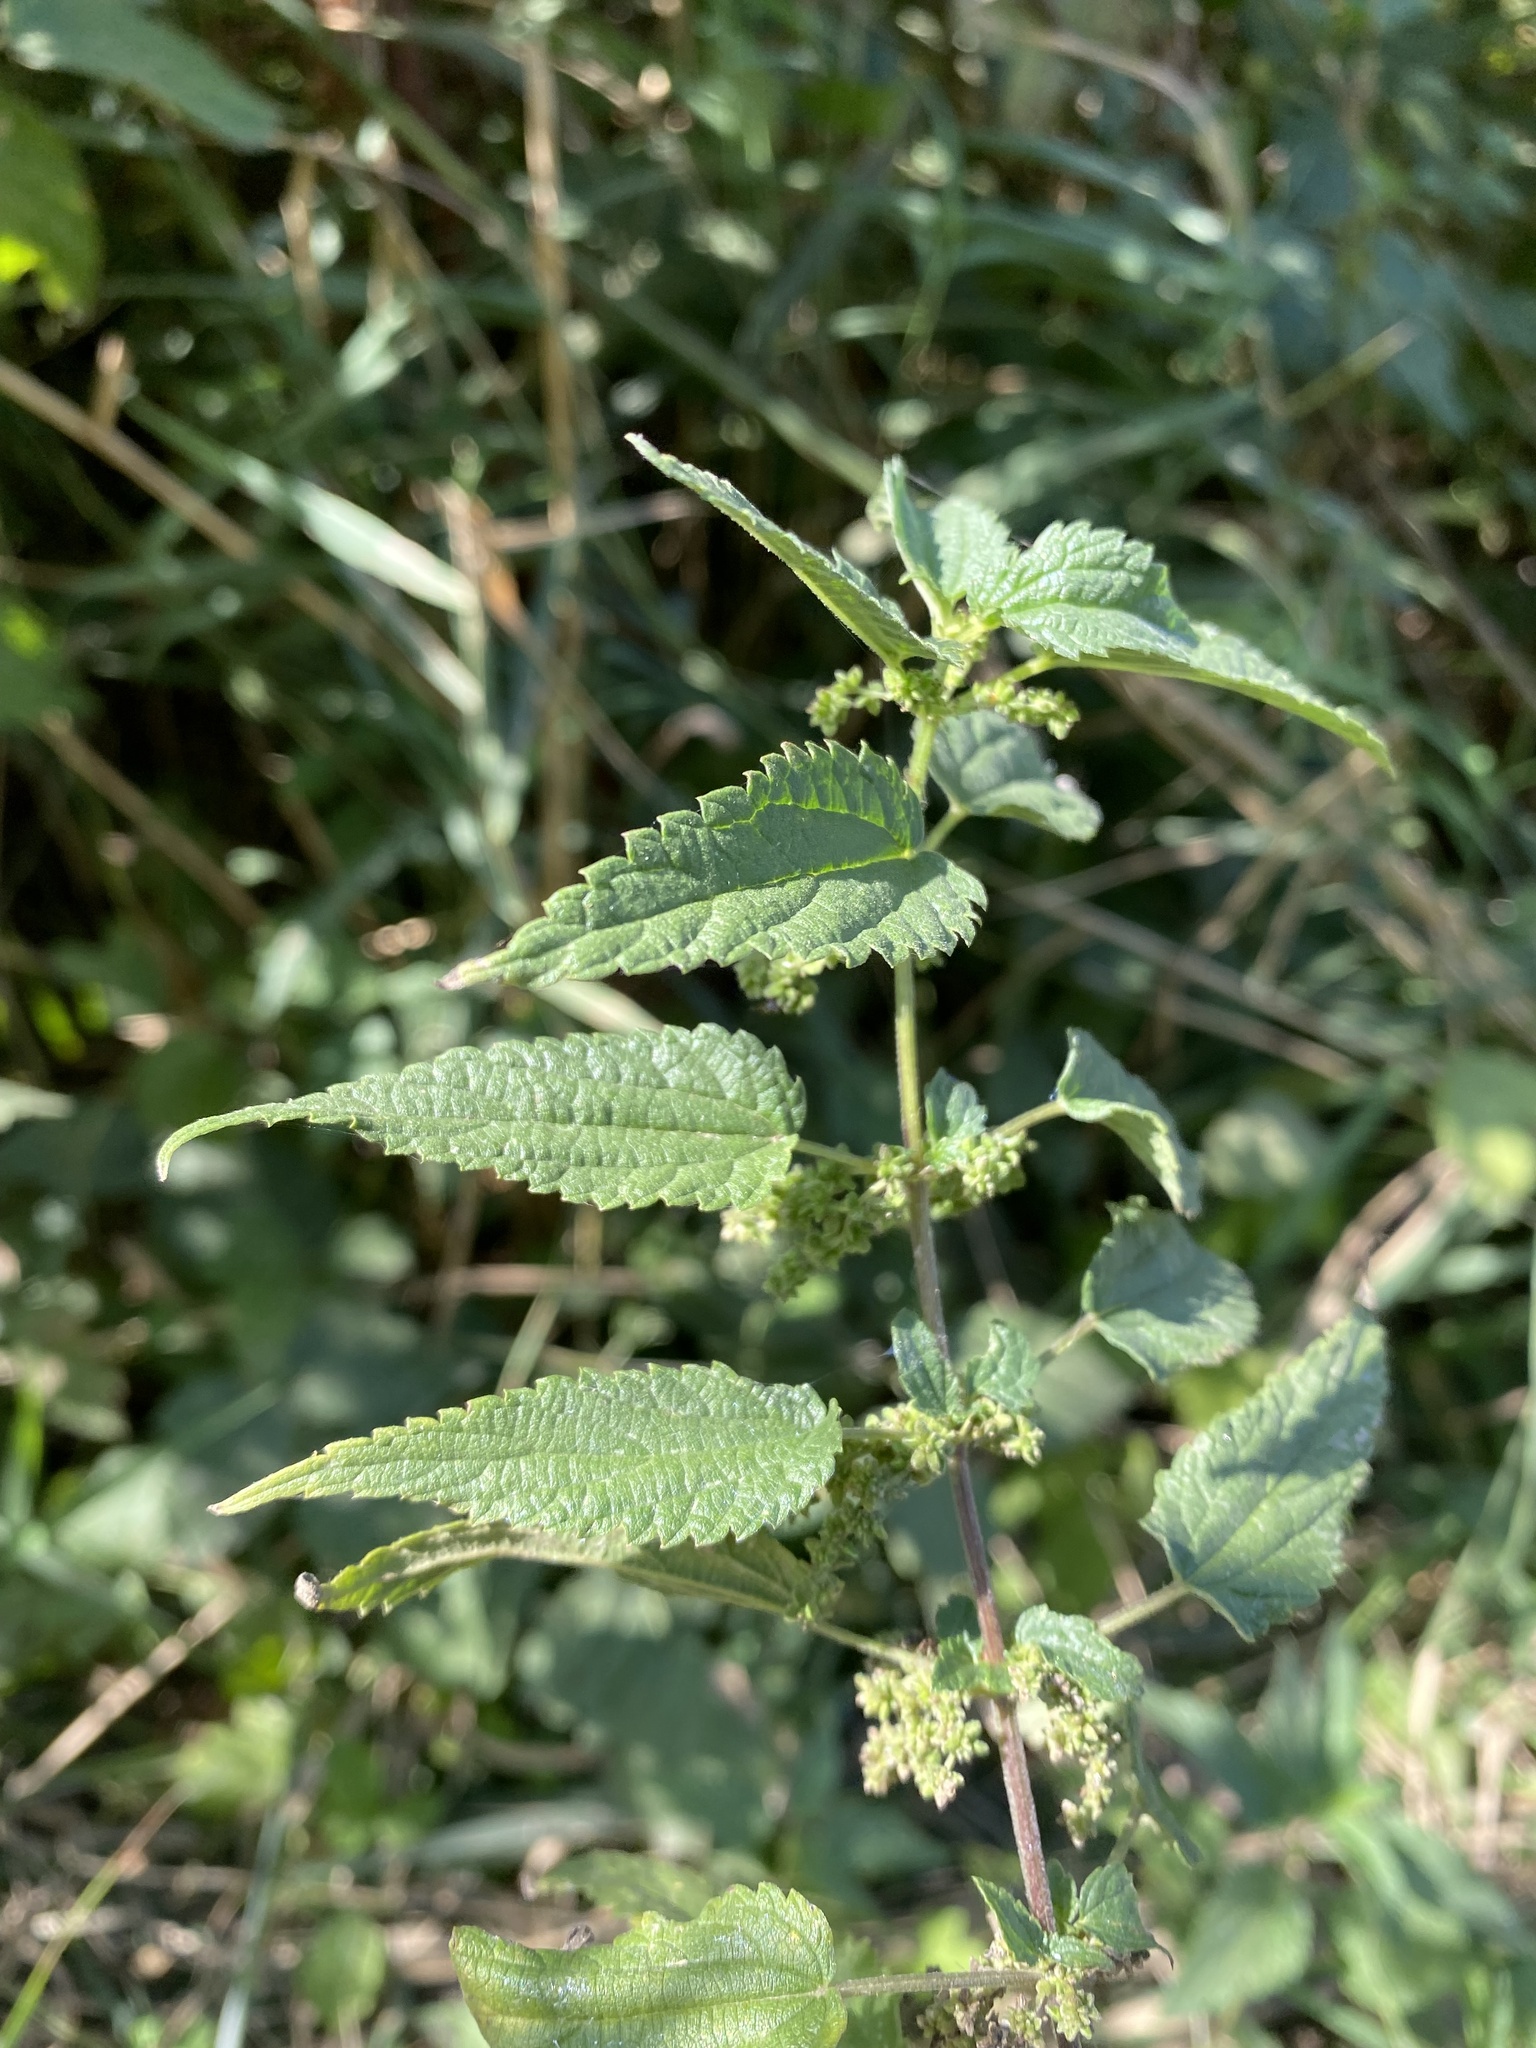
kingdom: Plantae
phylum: Tracheophyta
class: Magnoliopsida
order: Rosales
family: Urticaceae
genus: Urtica
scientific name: Urtica dioica
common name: Common nettle
